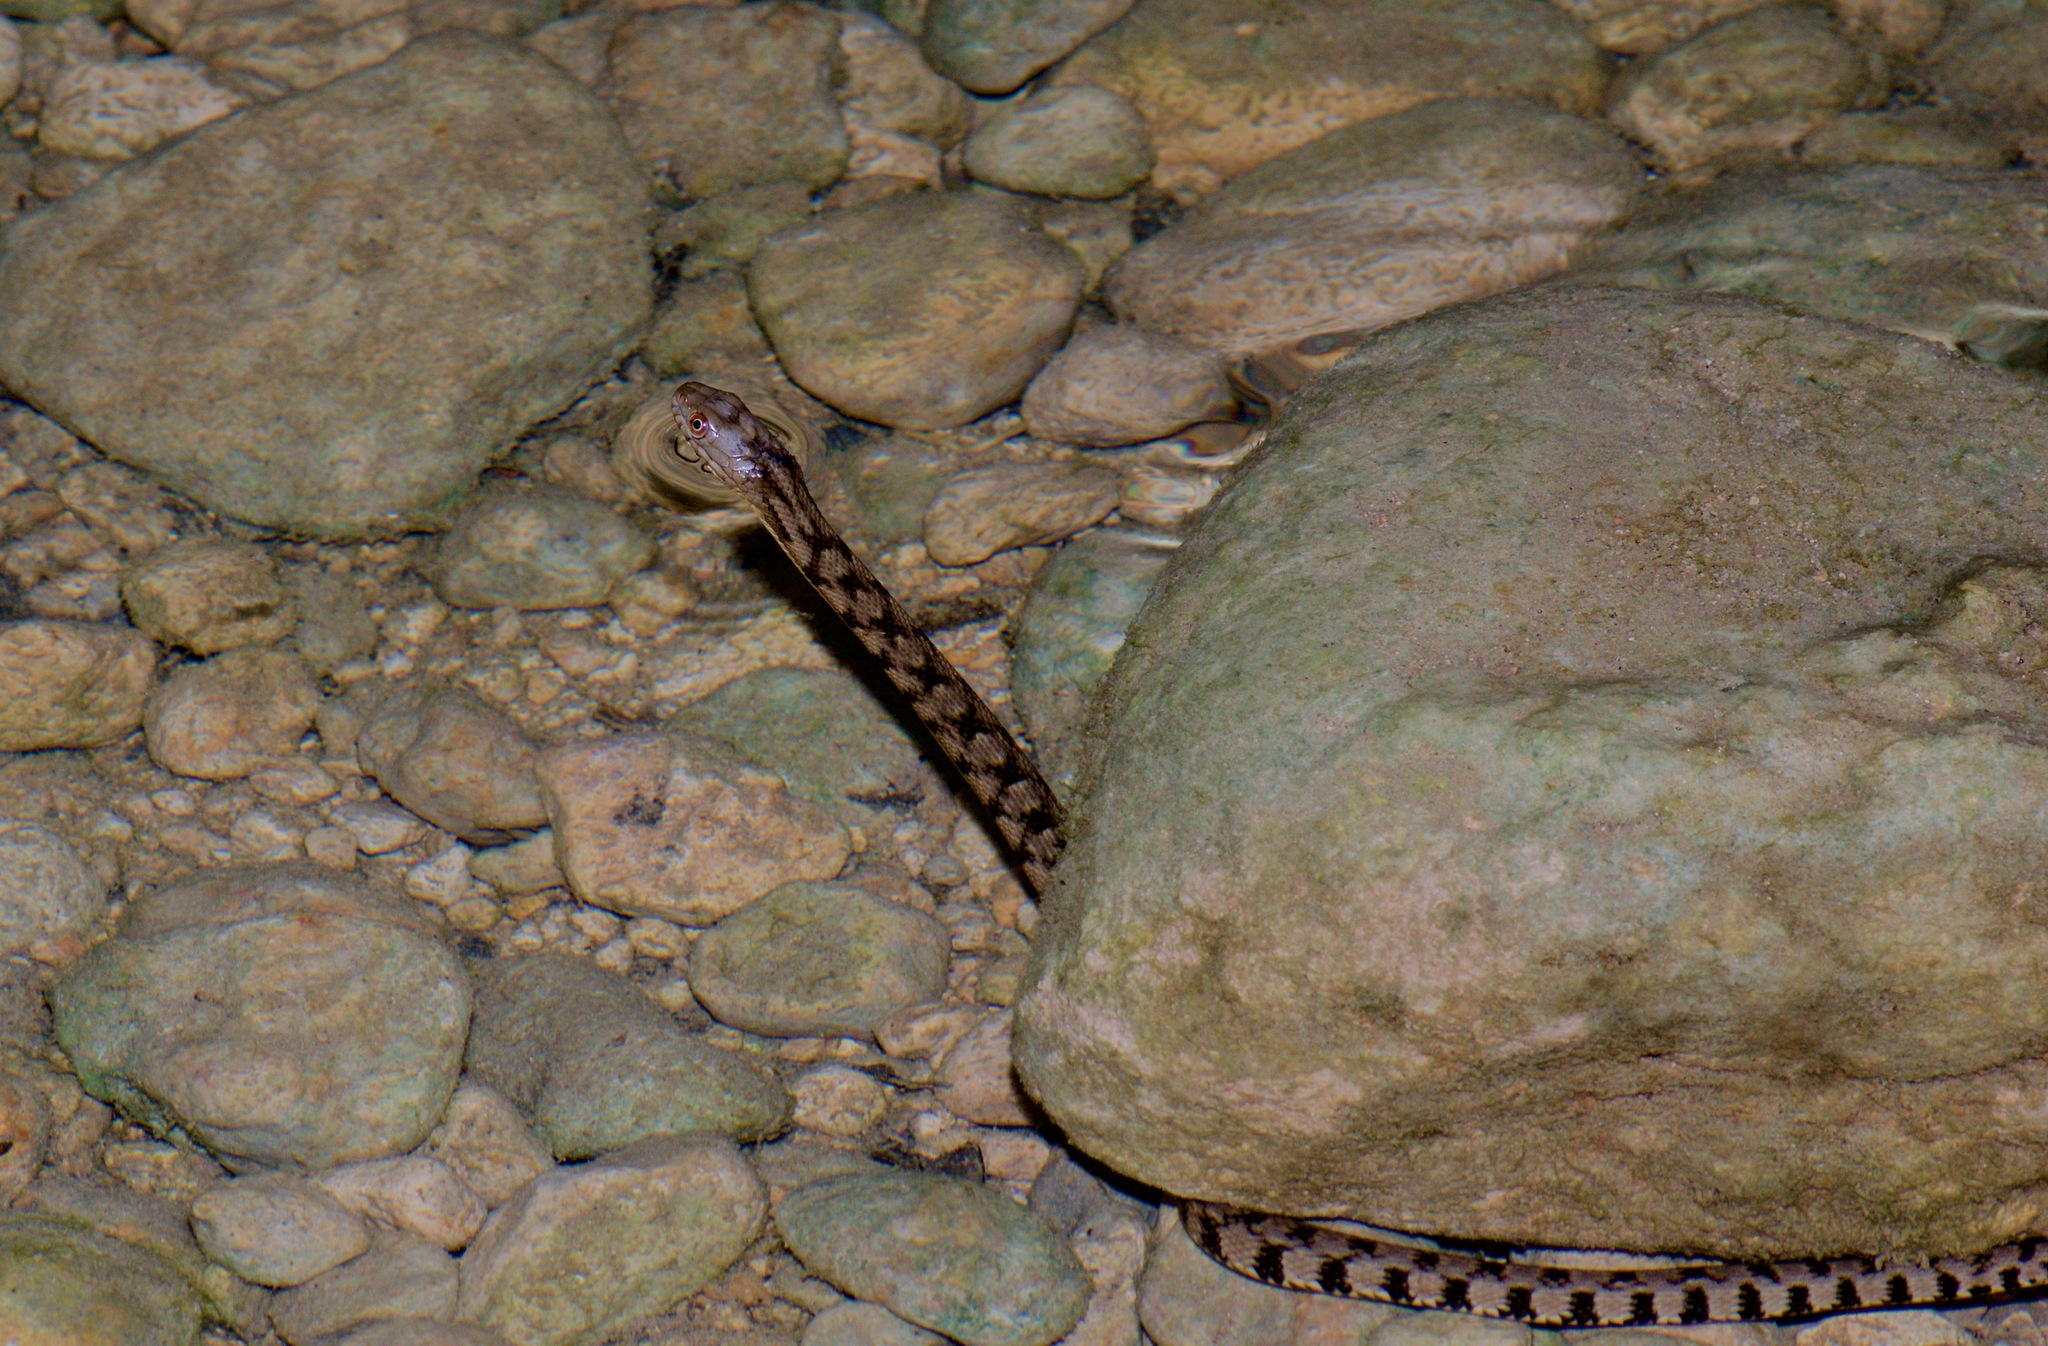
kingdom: Animalia
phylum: Chordata
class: Squamata
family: Colubridae
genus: Nerodia
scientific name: Nerodia rhombifer
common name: Diamondback water snake
